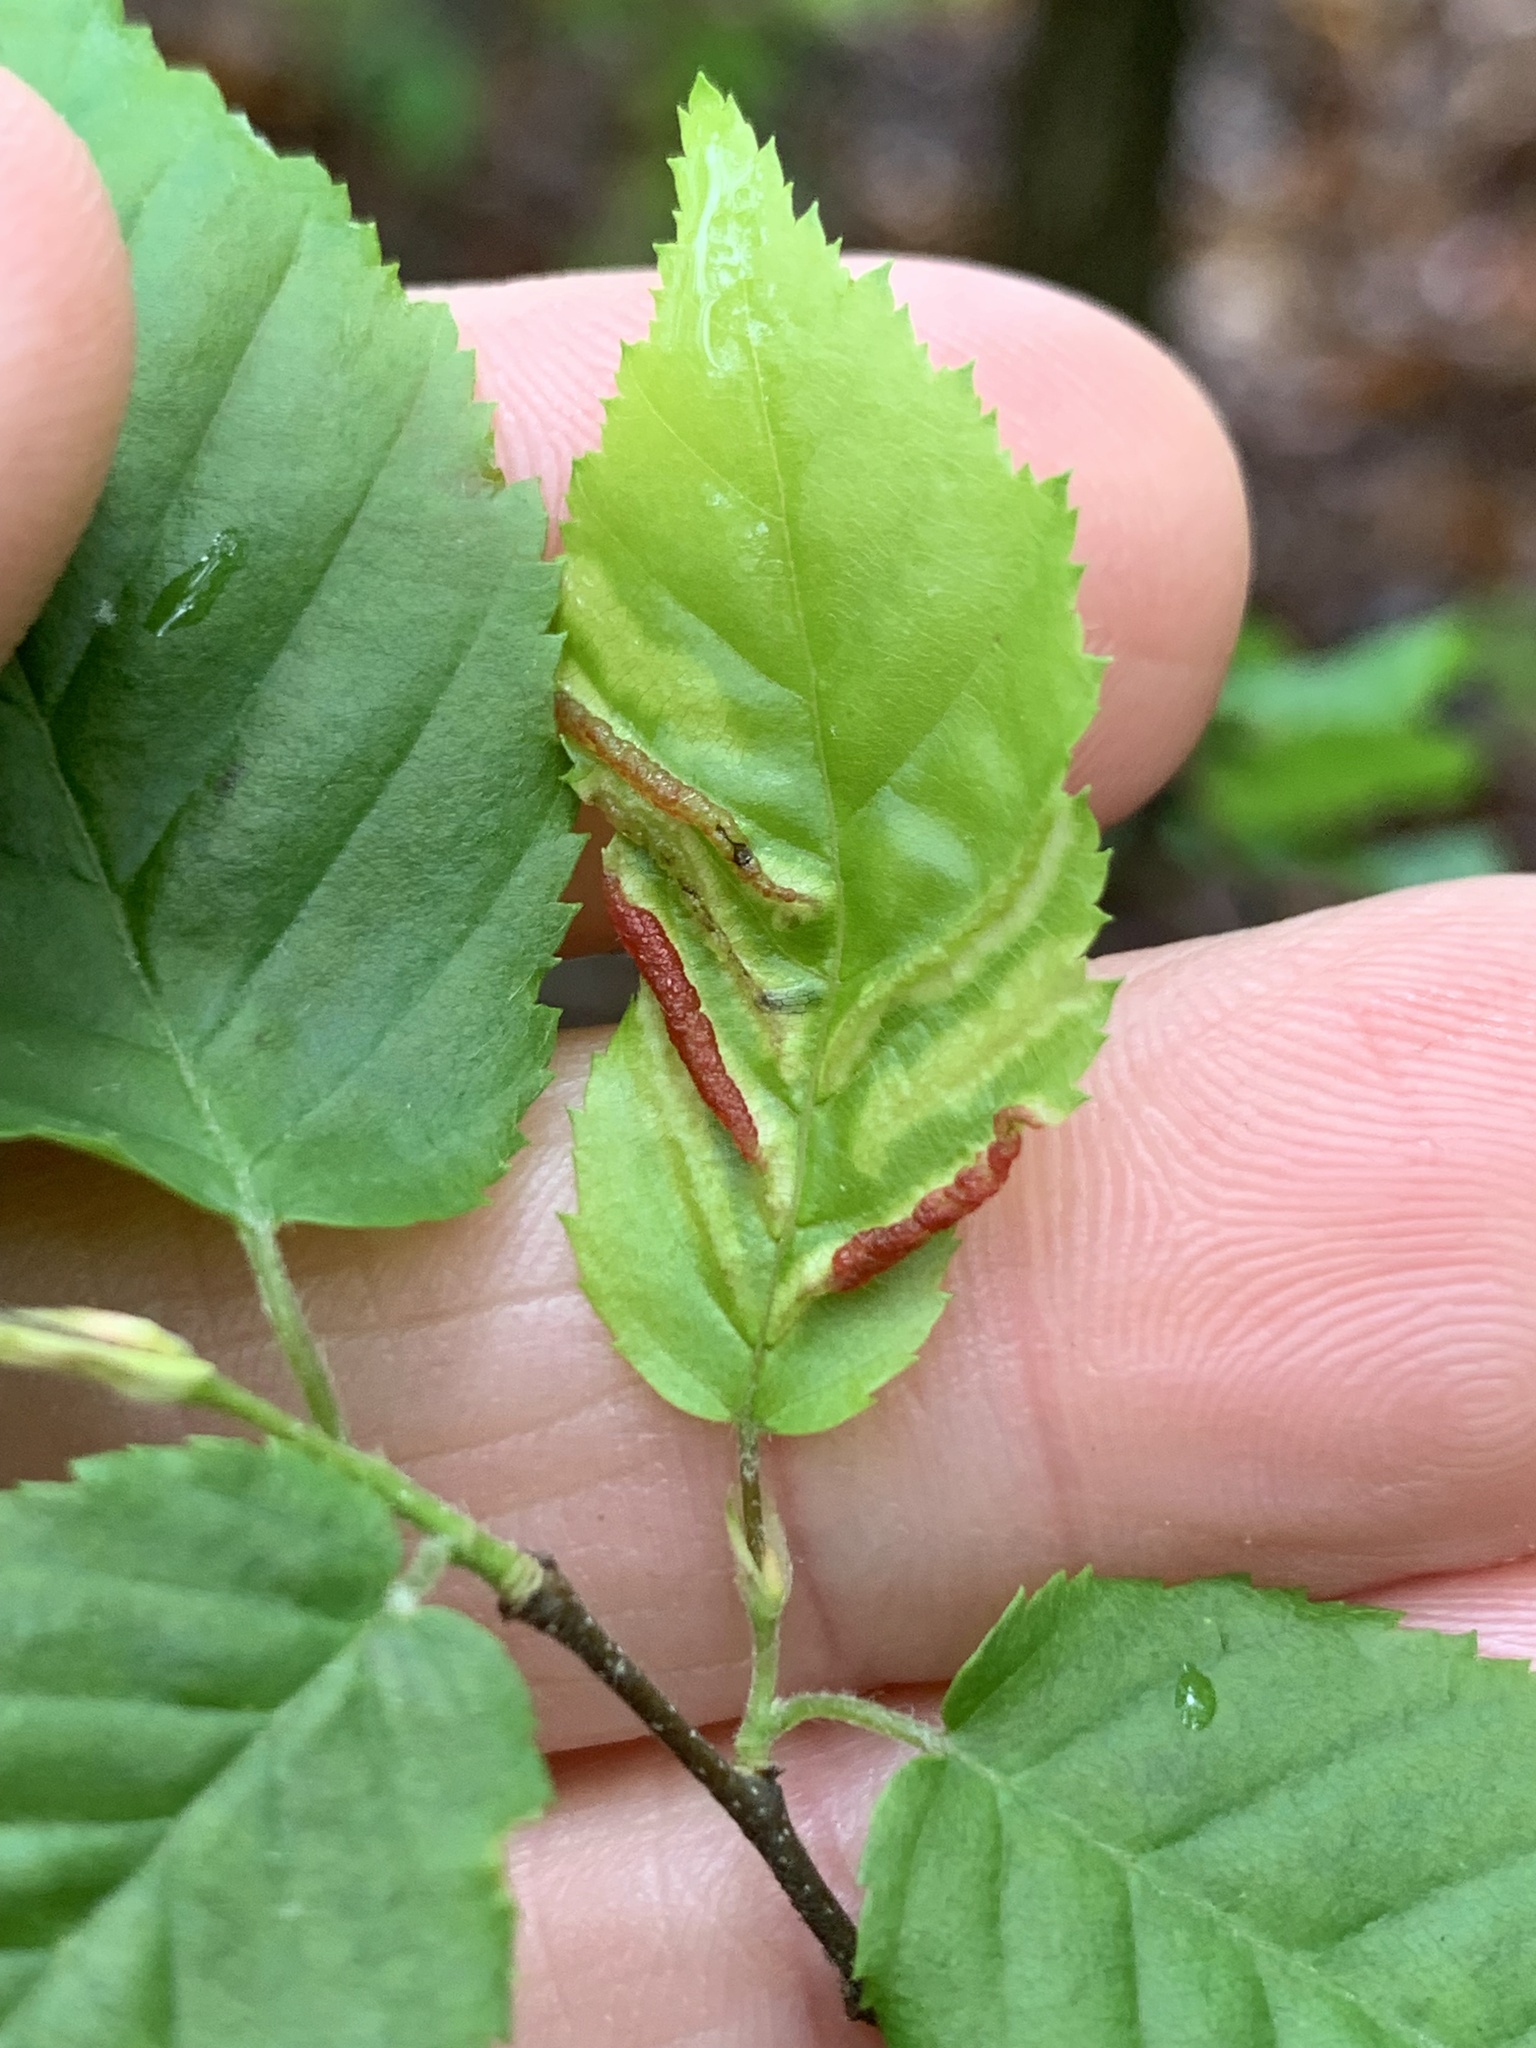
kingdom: Animalia
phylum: Arthropoda
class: Insecta
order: Diptera
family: Cecidomyiidae
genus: Dasineura
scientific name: Dasineura pudibunda
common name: Hornbeam leaf gall midge
